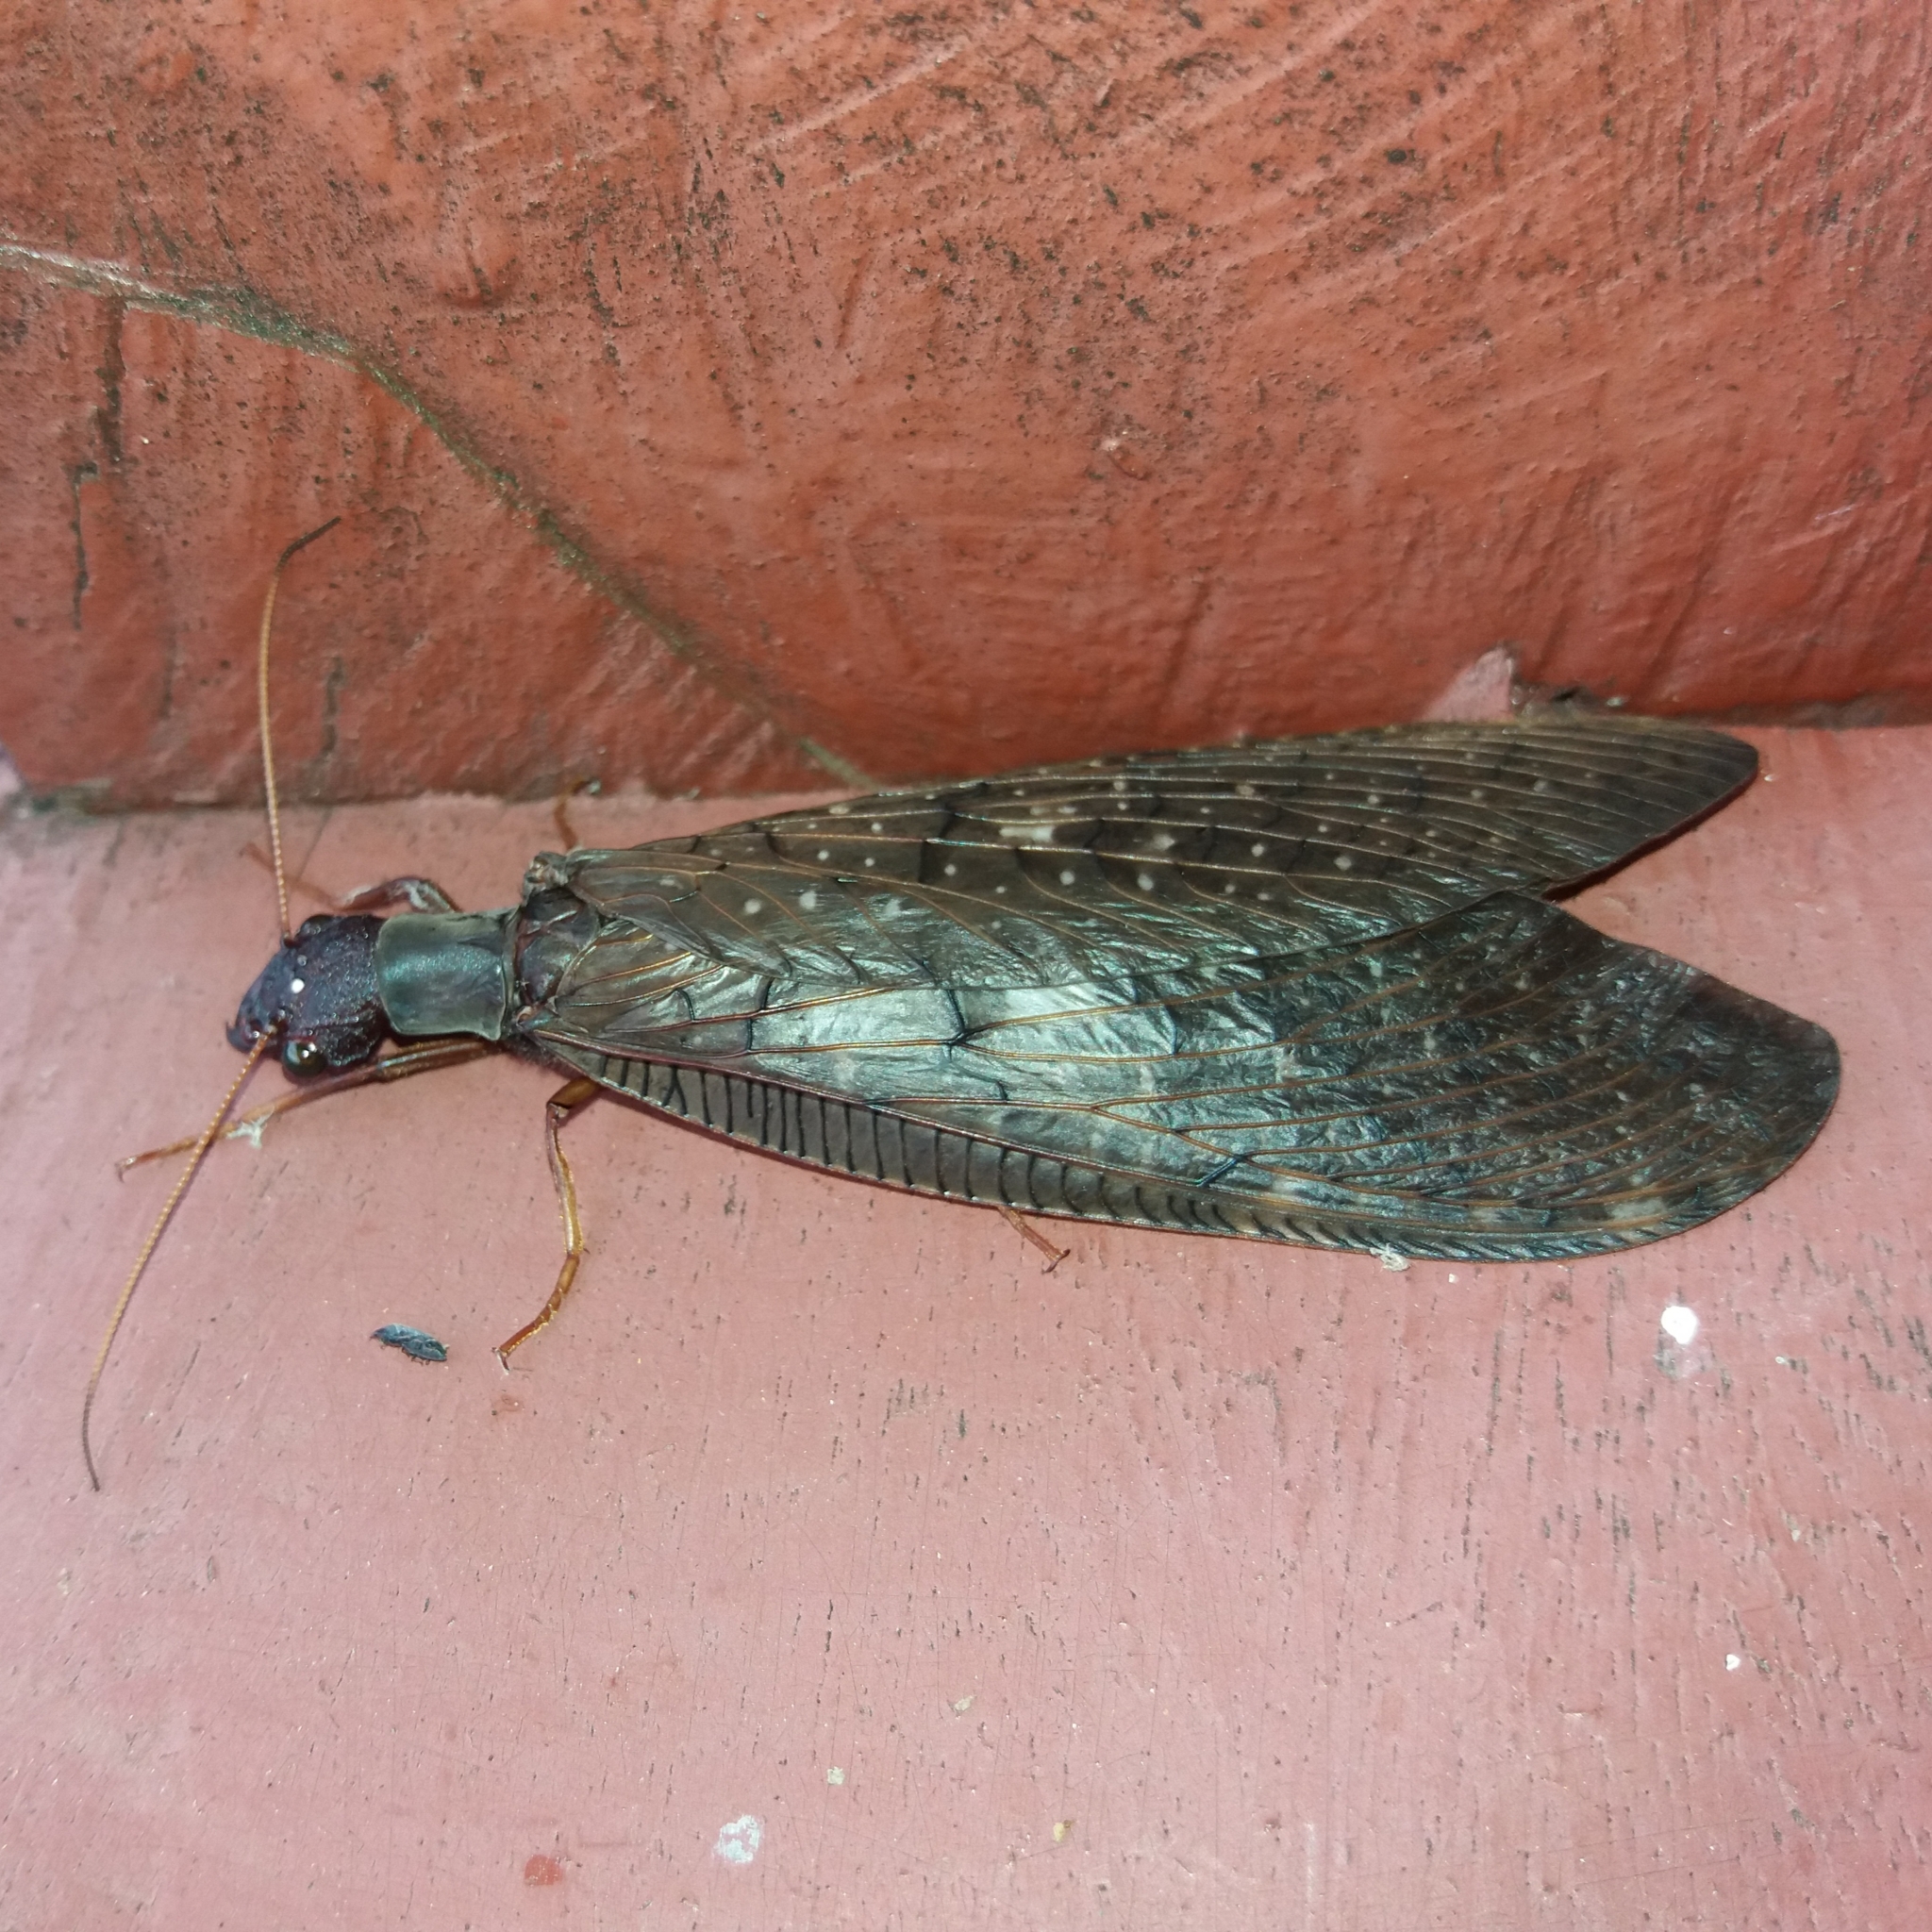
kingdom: Animalia
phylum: Arthropoda
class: Insecta
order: Megaloptera
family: Corydalidae
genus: Corydalus
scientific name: Corydalus hecate
